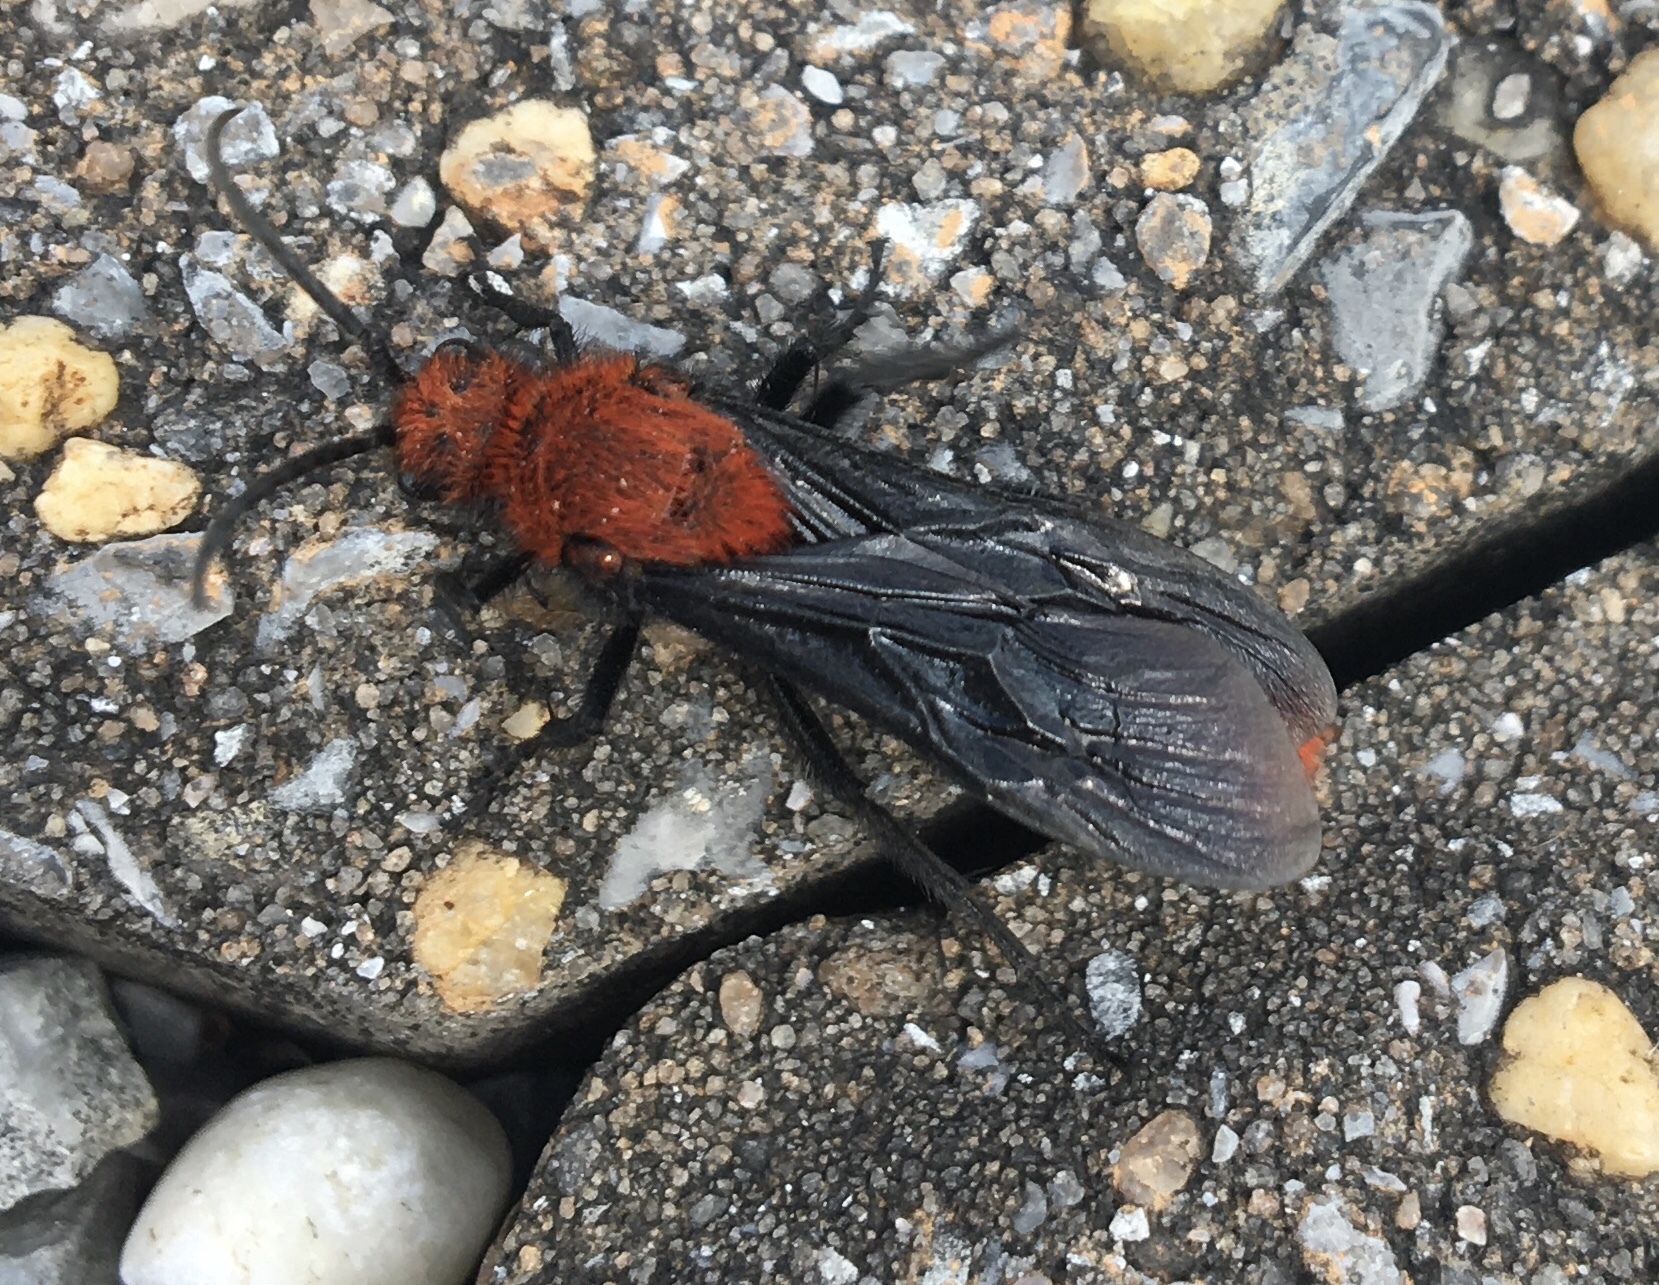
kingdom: Animalia
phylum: Arthropoda
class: Insecta
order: Hymenoptera
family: Mutillidae
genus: Dasymutilla
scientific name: Dasymutilla occidentalis
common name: Common eastern velvet ant
